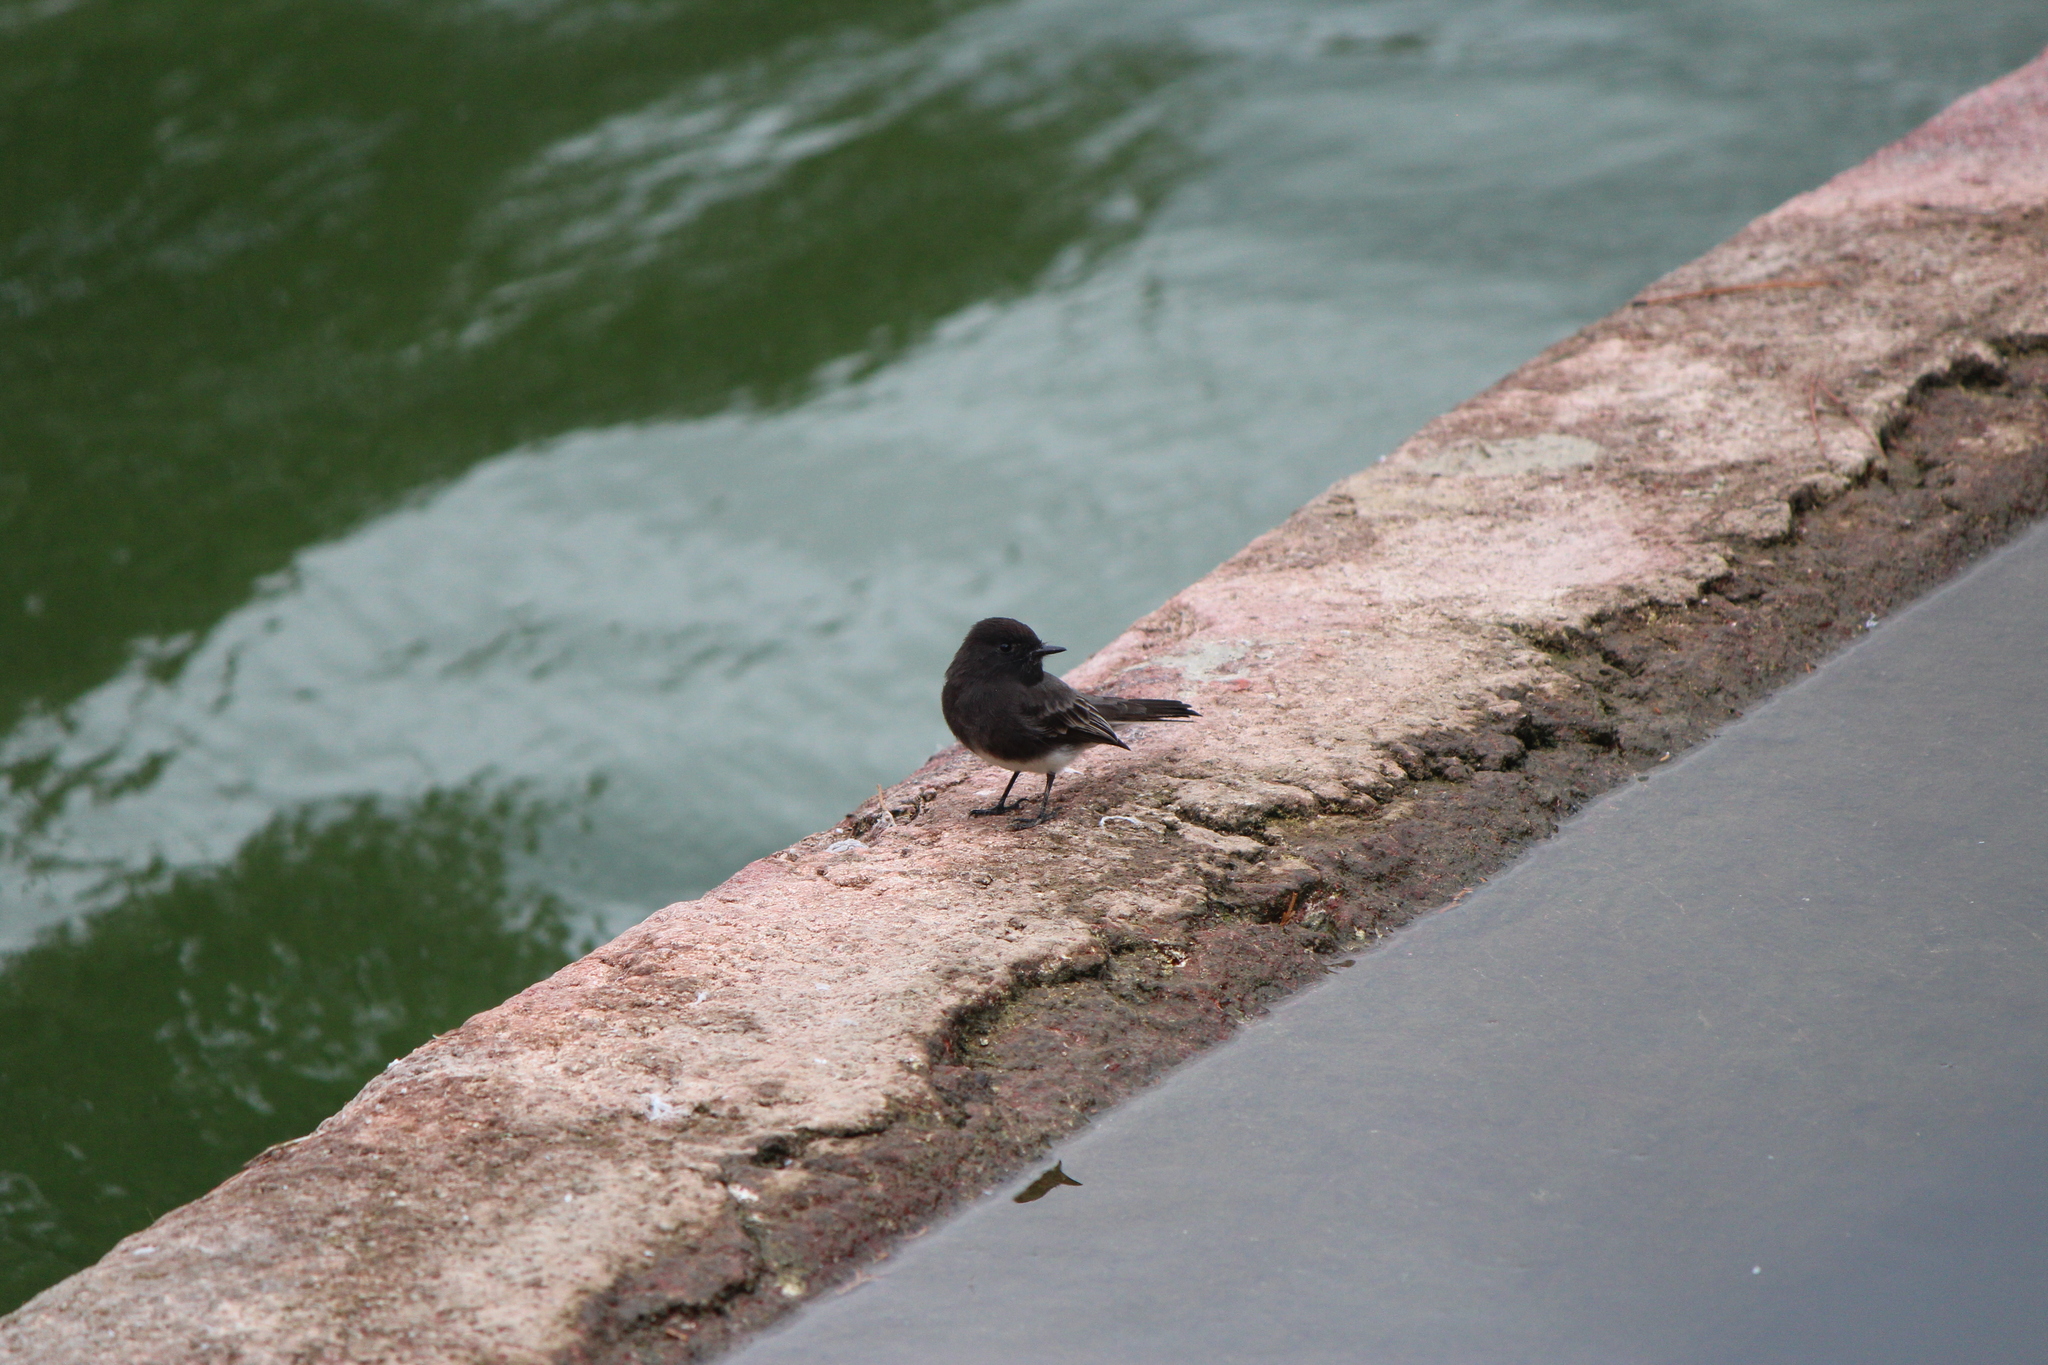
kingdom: Animalia
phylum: Chordata
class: Aves
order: Passeriformes
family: Tyrannidae
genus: Sayornis
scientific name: Sayornis nigricans
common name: Black phoebe
